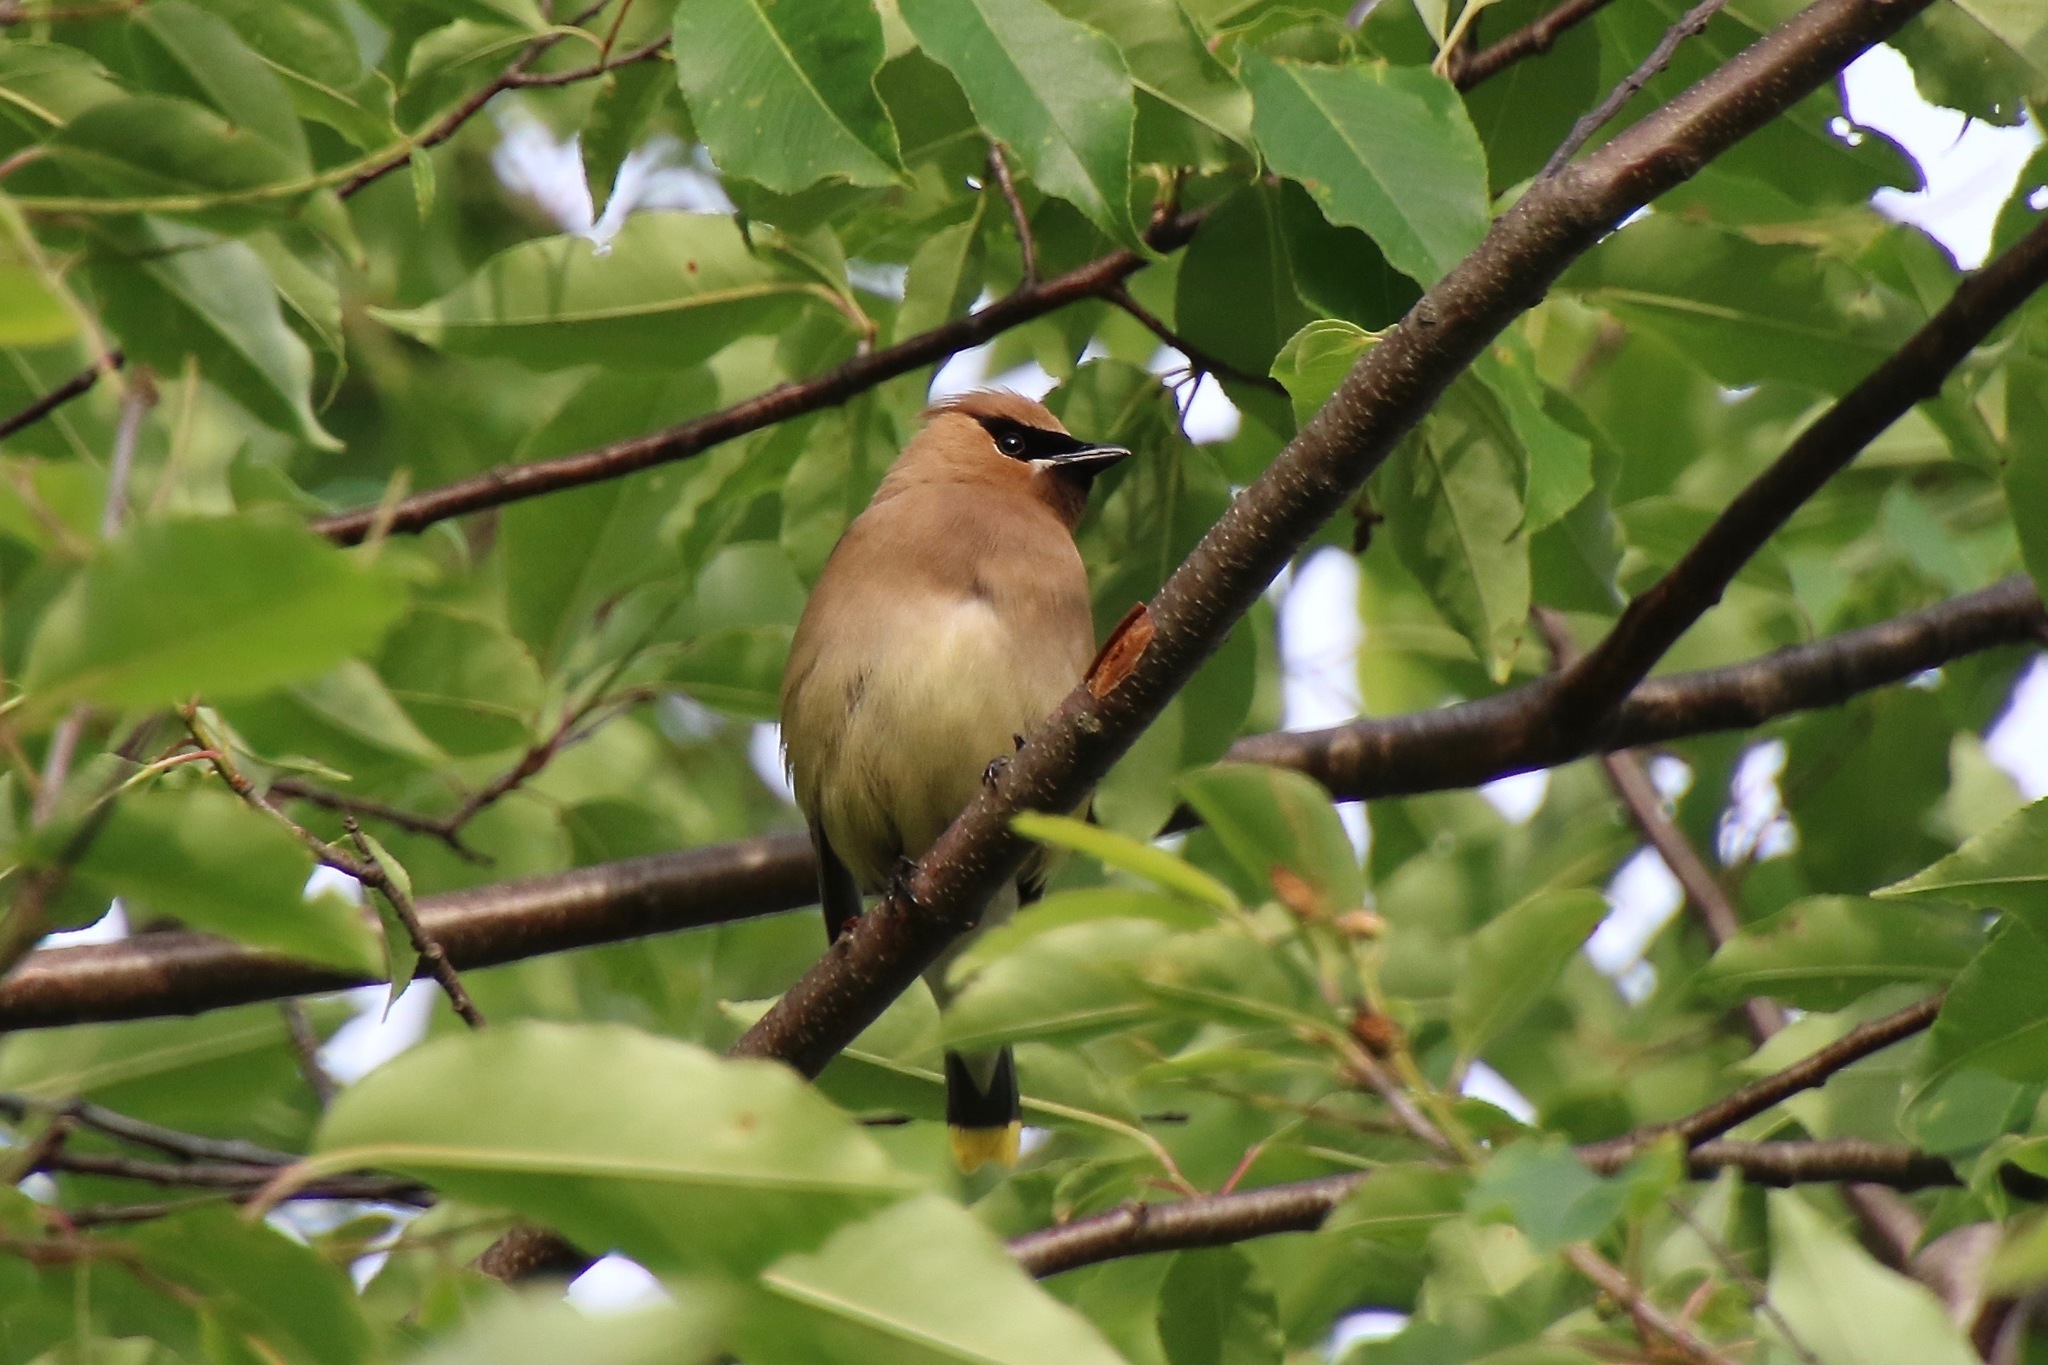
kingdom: Animalia
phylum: Chordata
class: Aves
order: Passeriformes
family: Bombycillidae
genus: Bombycilla
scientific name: Bombycilla cedrorum
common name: Cedar waxwing
